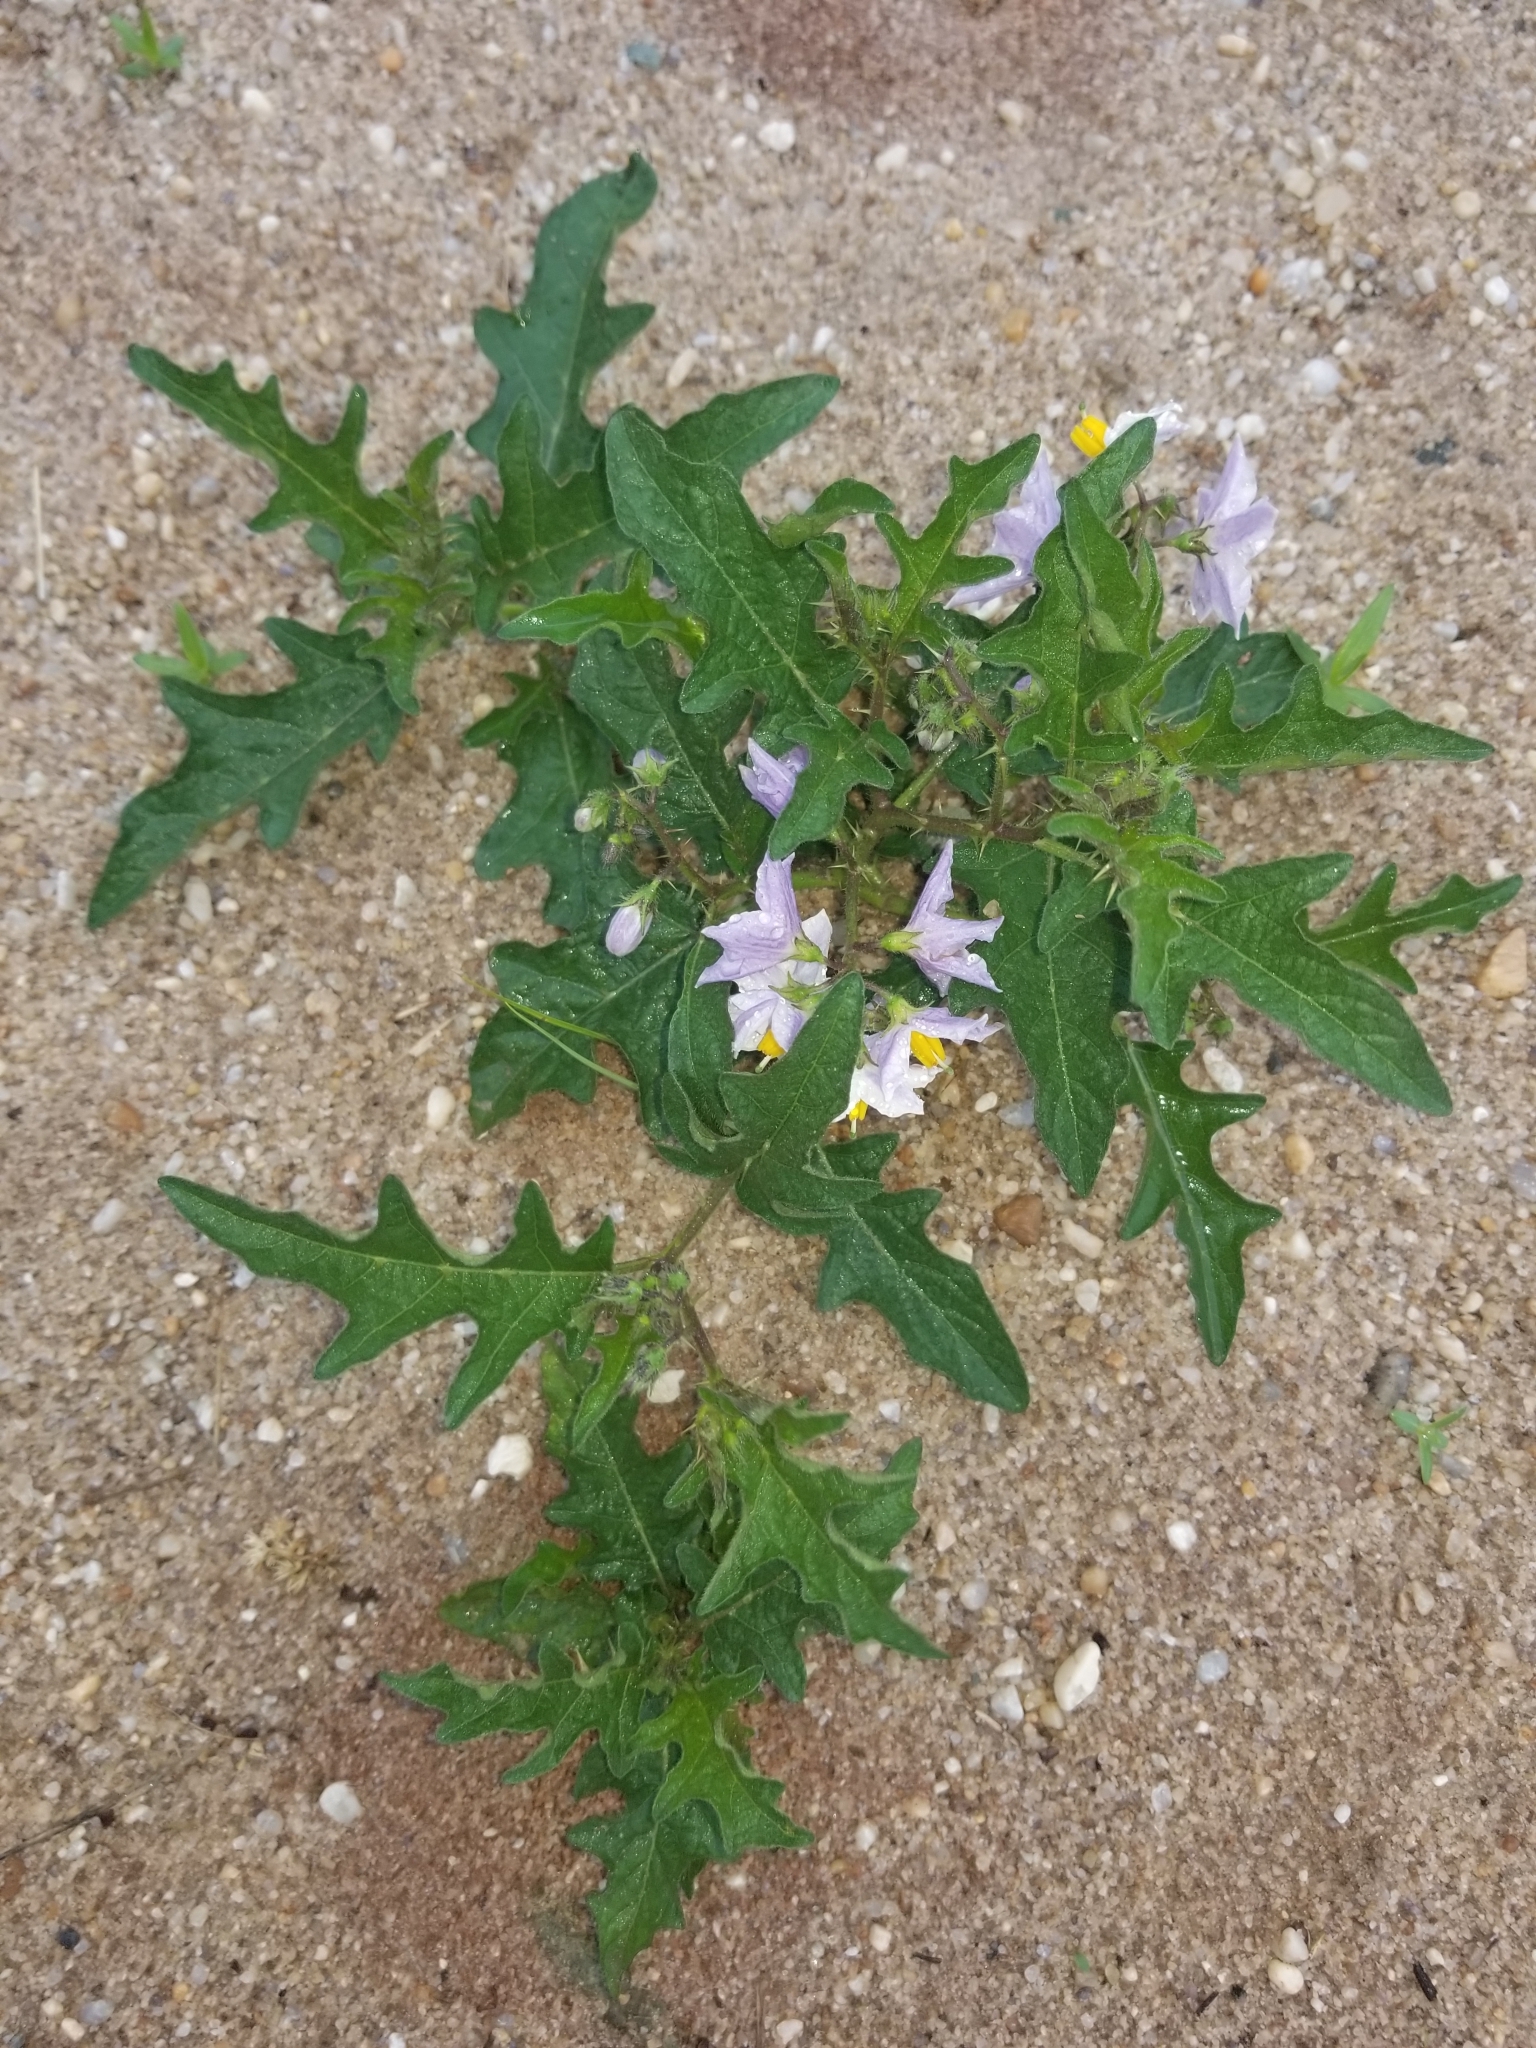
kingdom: Plantae
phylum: Tracheophyta
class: Magnoliopsida
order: Solanales
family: Solanaceae
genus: Solanum
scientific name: Solanum carolinense
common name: Horse-nettle
